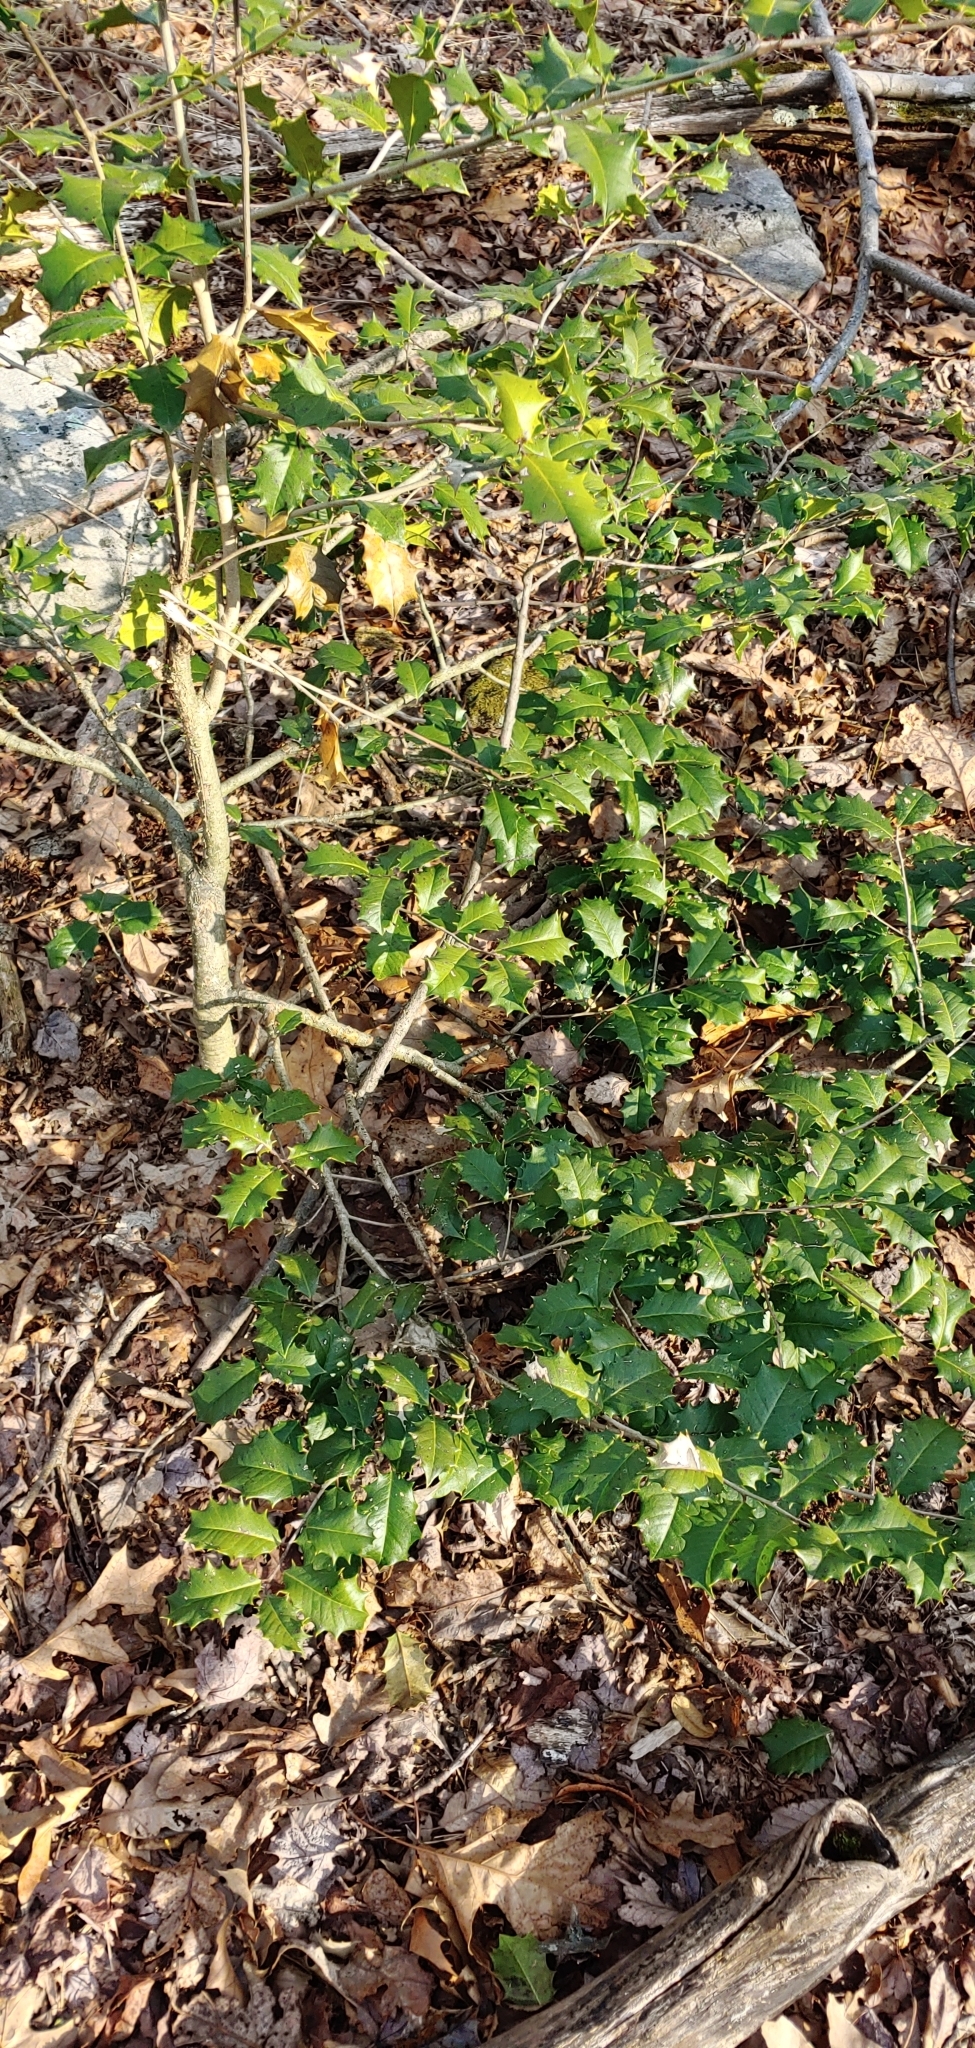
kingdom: Plantae
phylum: Tracheophyta
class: Magnoliopsida
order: Aquifoliales
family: Aquifoliaceae
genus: Ilex
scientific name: Ilex opaca
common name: American holly
